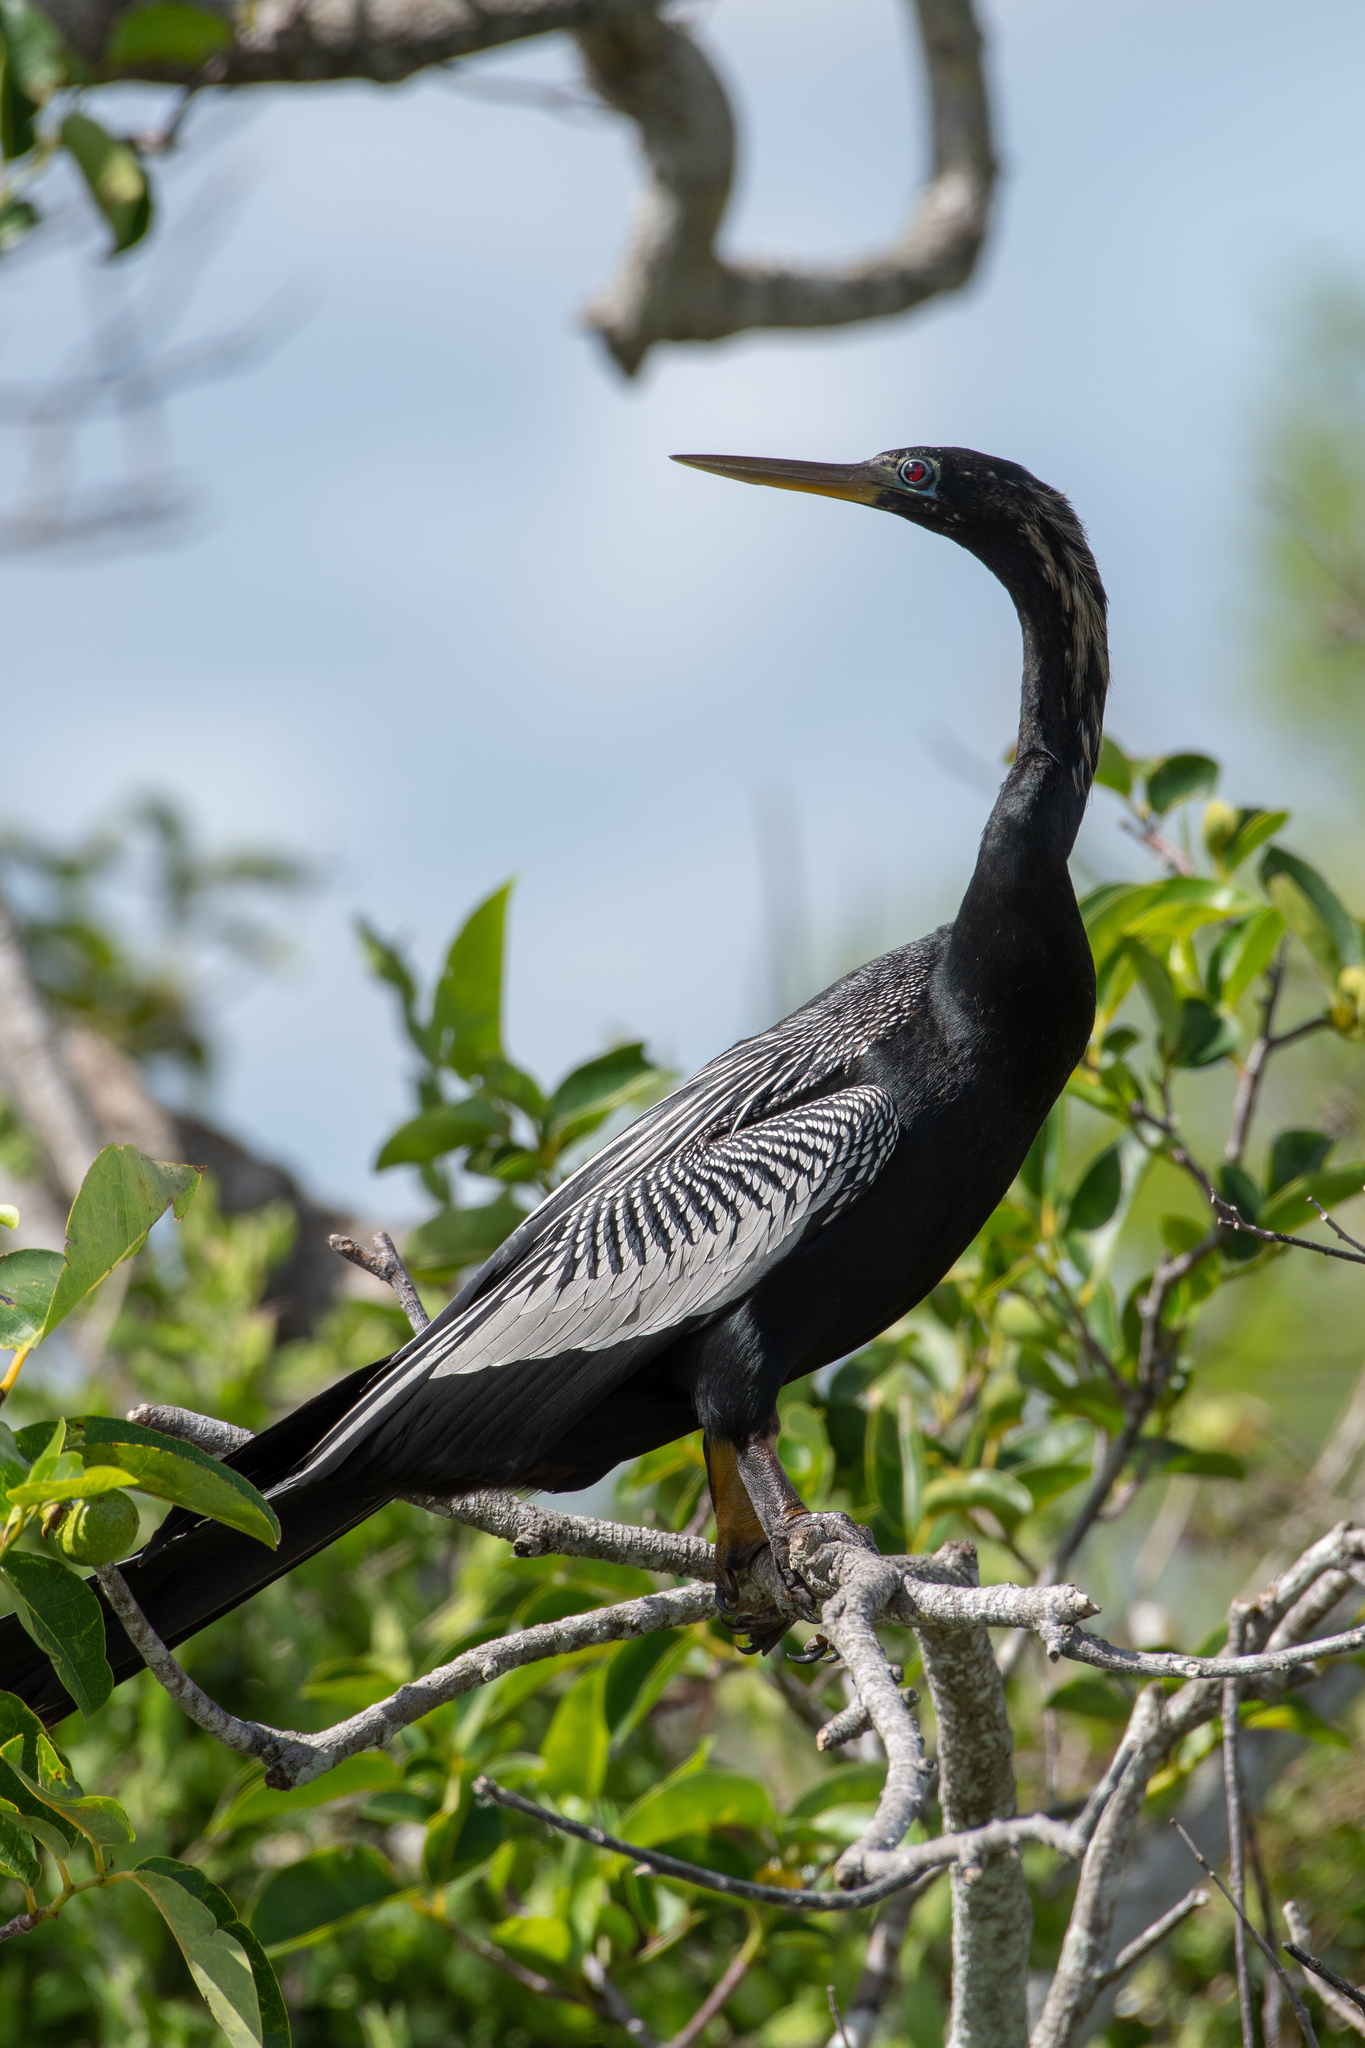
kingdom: Animalia
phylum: Chordata
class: Aves
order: Suliformes
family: Anhingidae
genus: Anhinga
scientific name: Anhinga anhinga
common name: Anhinga
